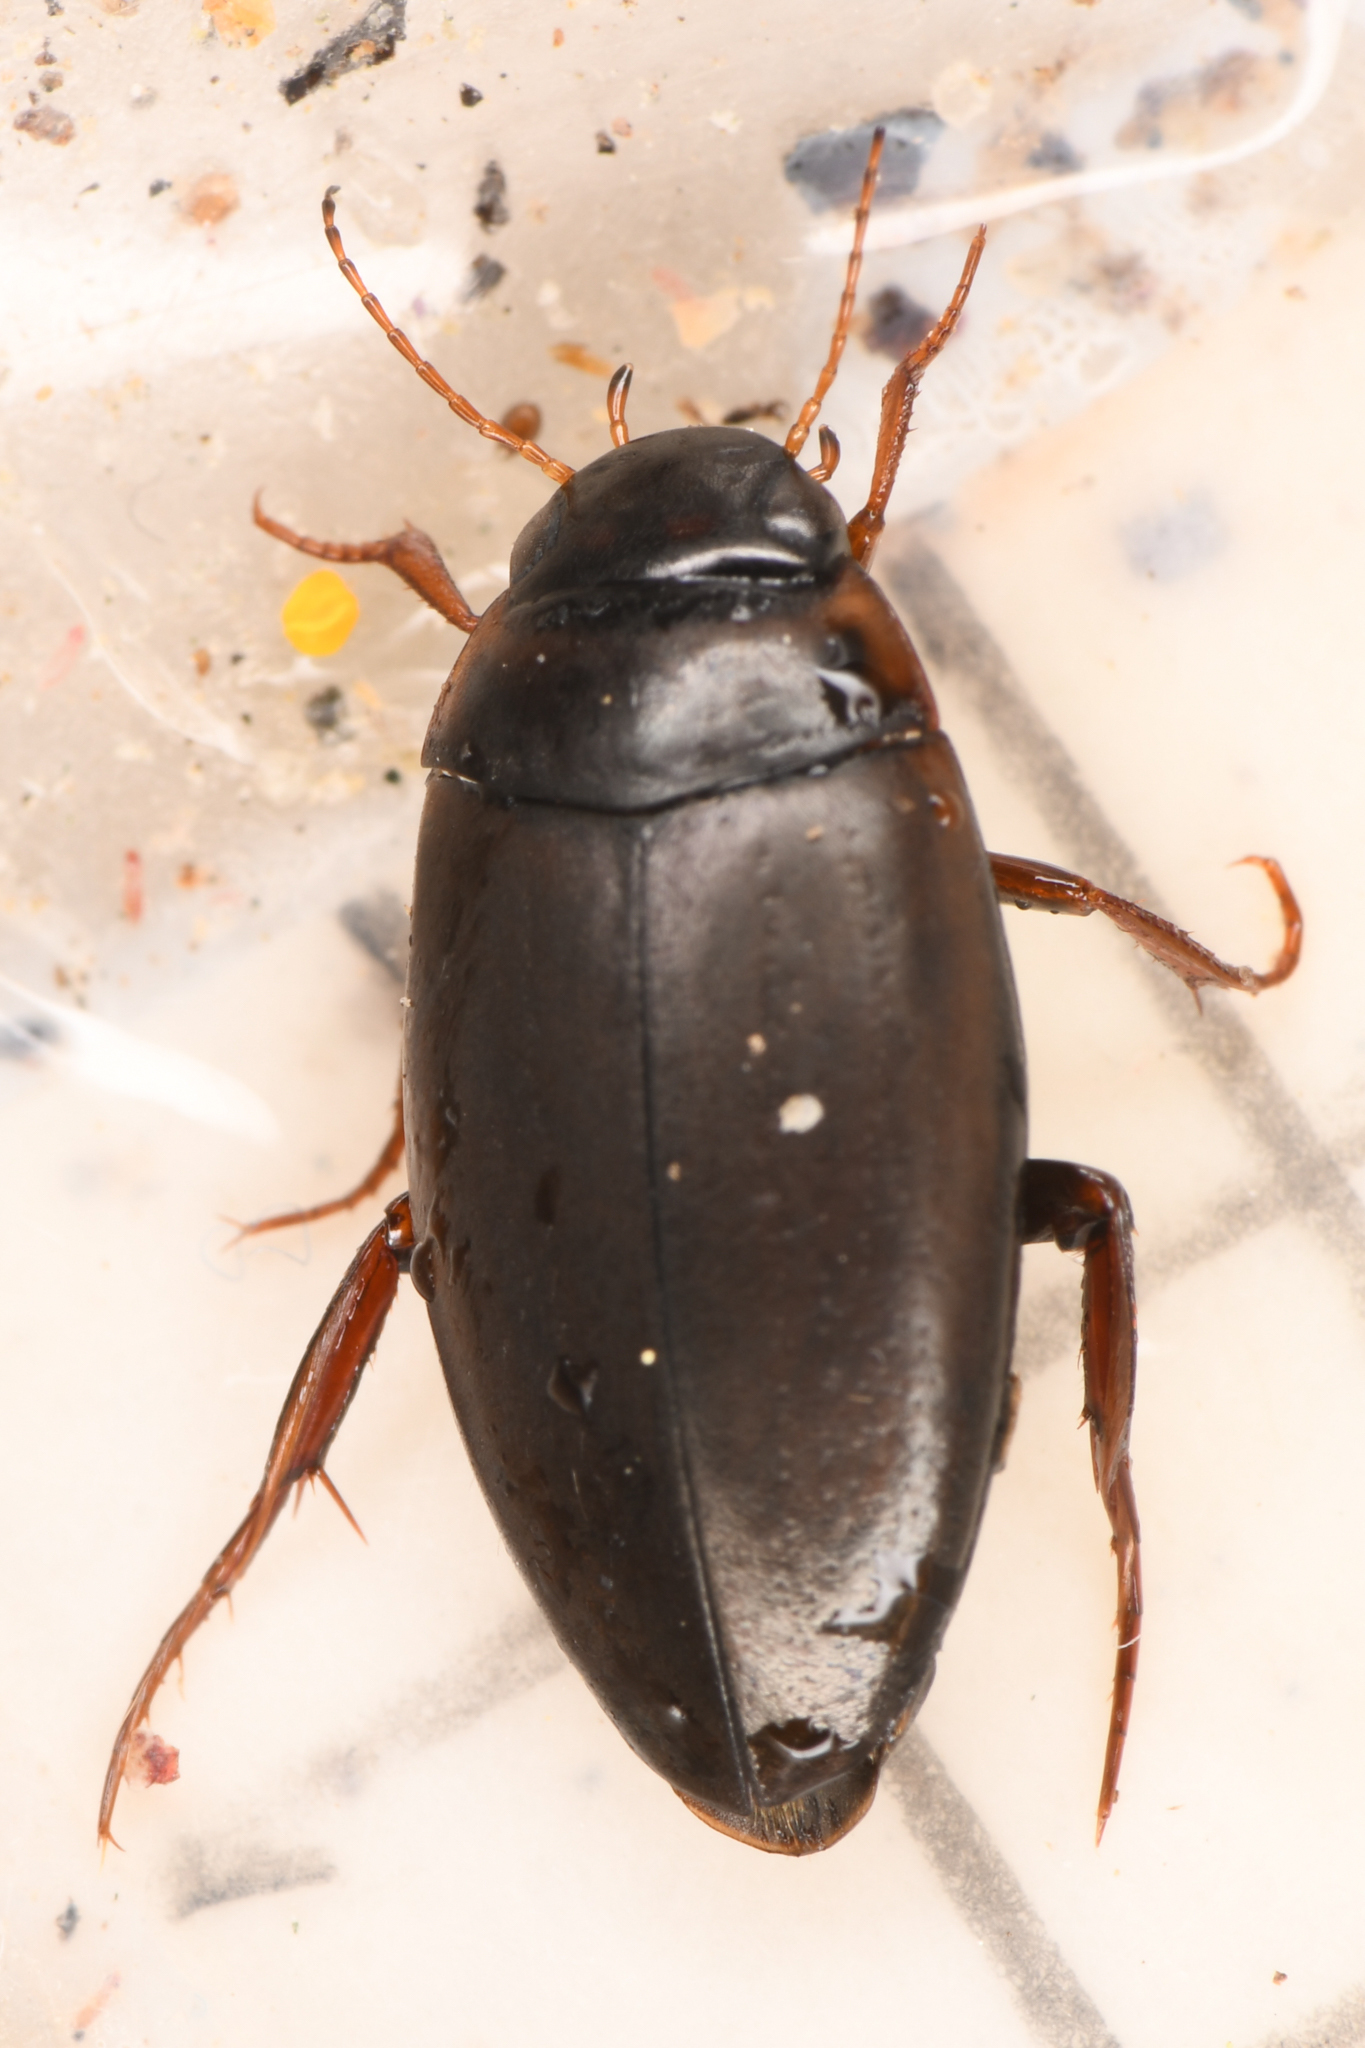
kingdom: Animalia
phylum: Arthropoda
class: Insecta
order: Coleoptera
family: Dytiscidae
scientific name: Dytiscidae
